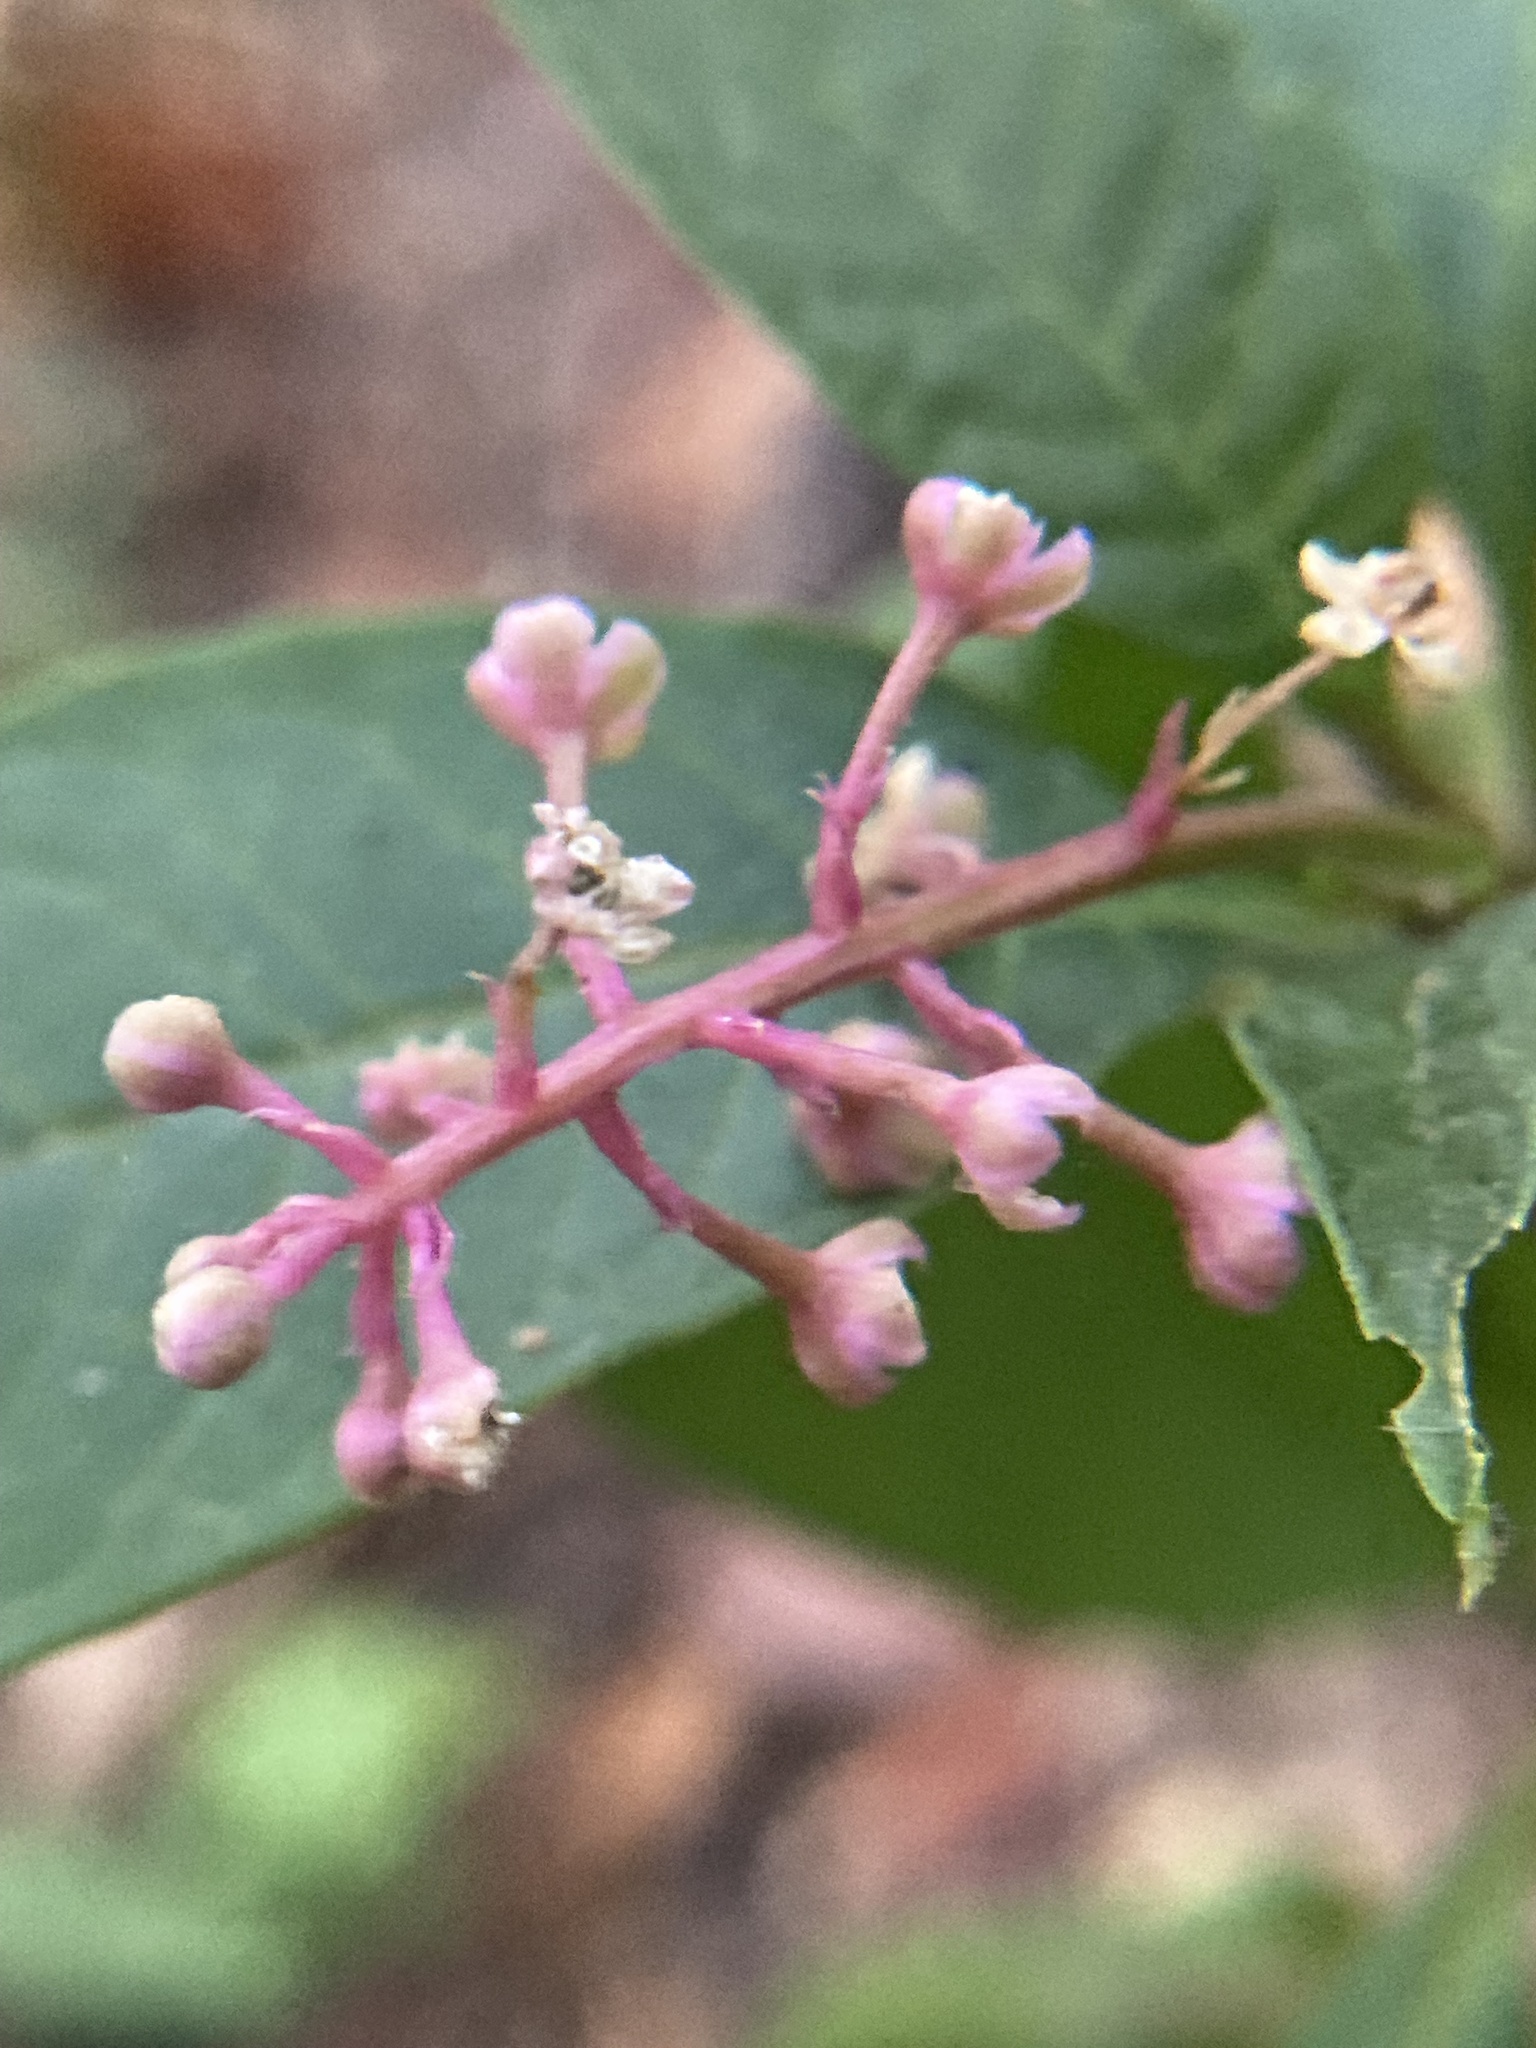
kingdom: Plantae
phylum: Tracheophyta
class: Magnoliopsida
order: Caryophyllales
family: Phytolaccaceae
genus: Phytolacca
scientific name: Phytolacca americana
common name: American pokeweed
